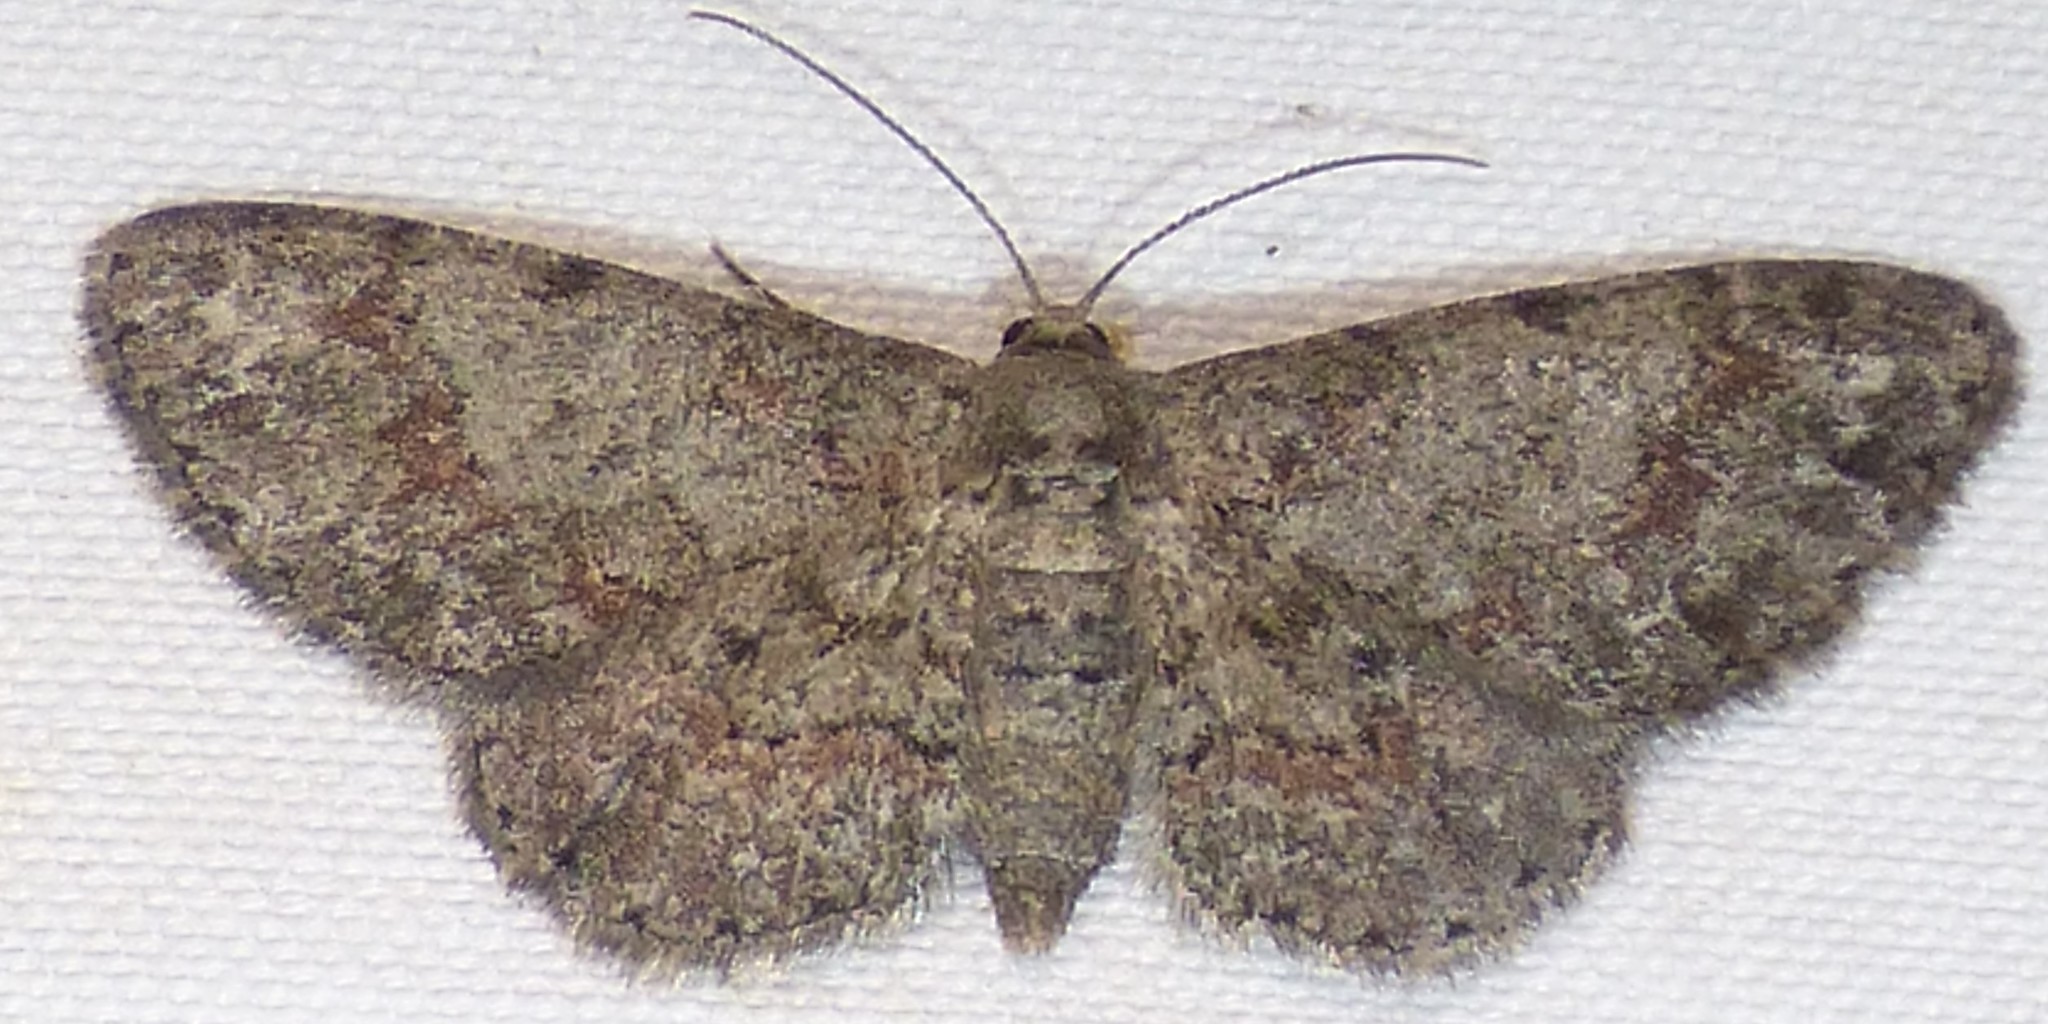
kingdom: Animalia
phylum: Arthropoda
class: Insecta
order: Lepidoptera
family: Geometridae
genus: Glenoides
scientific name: Glenoides texanaria
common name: Texas gray
